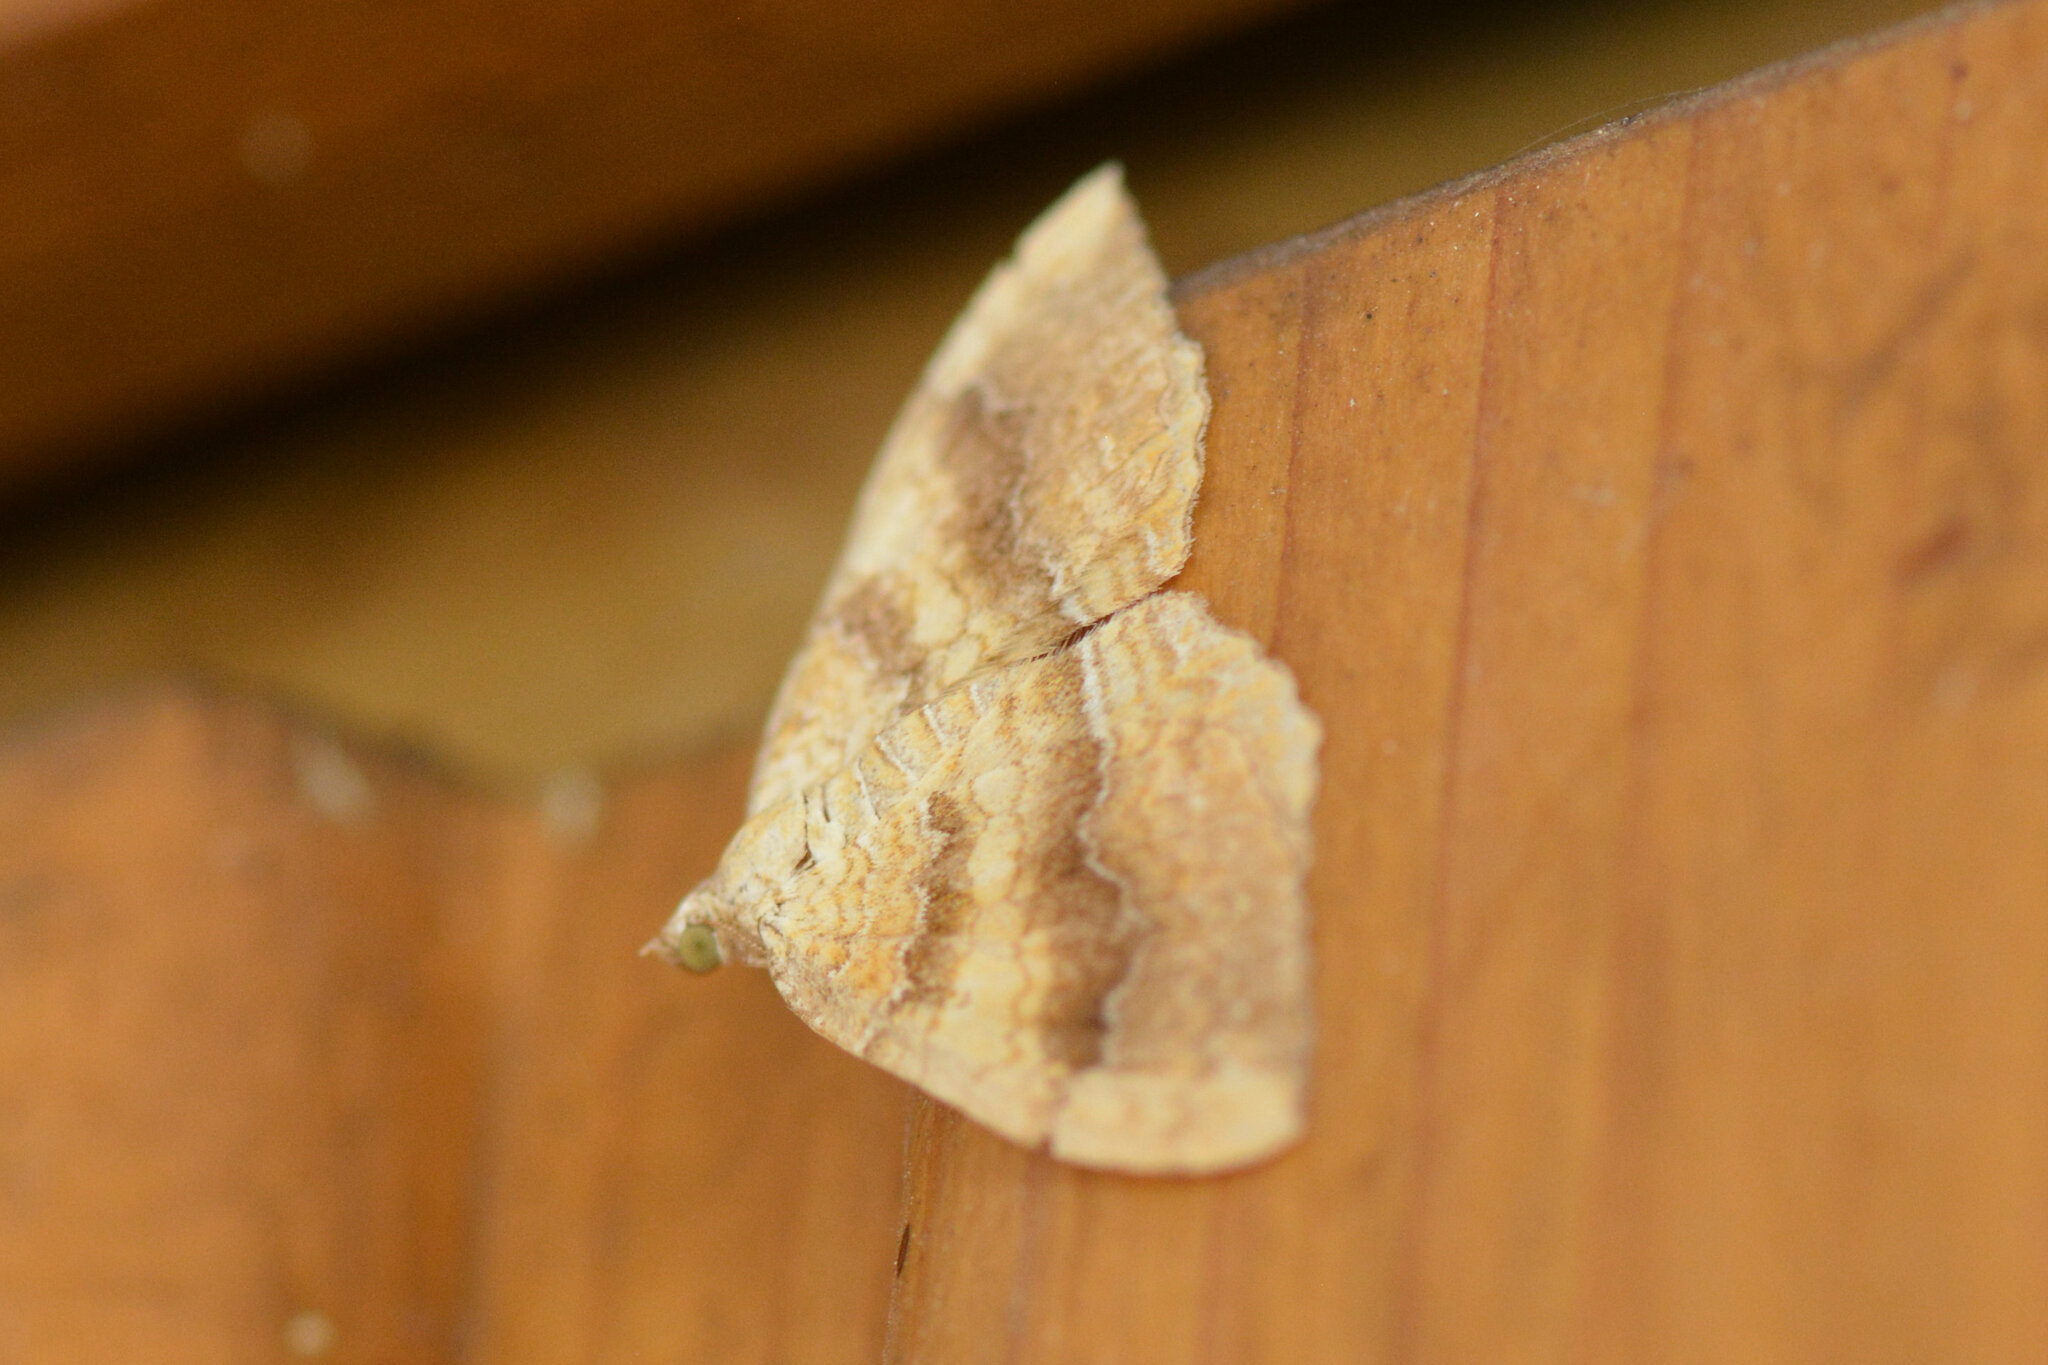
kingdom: Animalia
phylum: Arthropoda
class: Insecta
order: Lepidoptera
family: Geometridae
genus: Camptogramma
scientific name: Camptogramma bilineata
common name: Yellow shell
